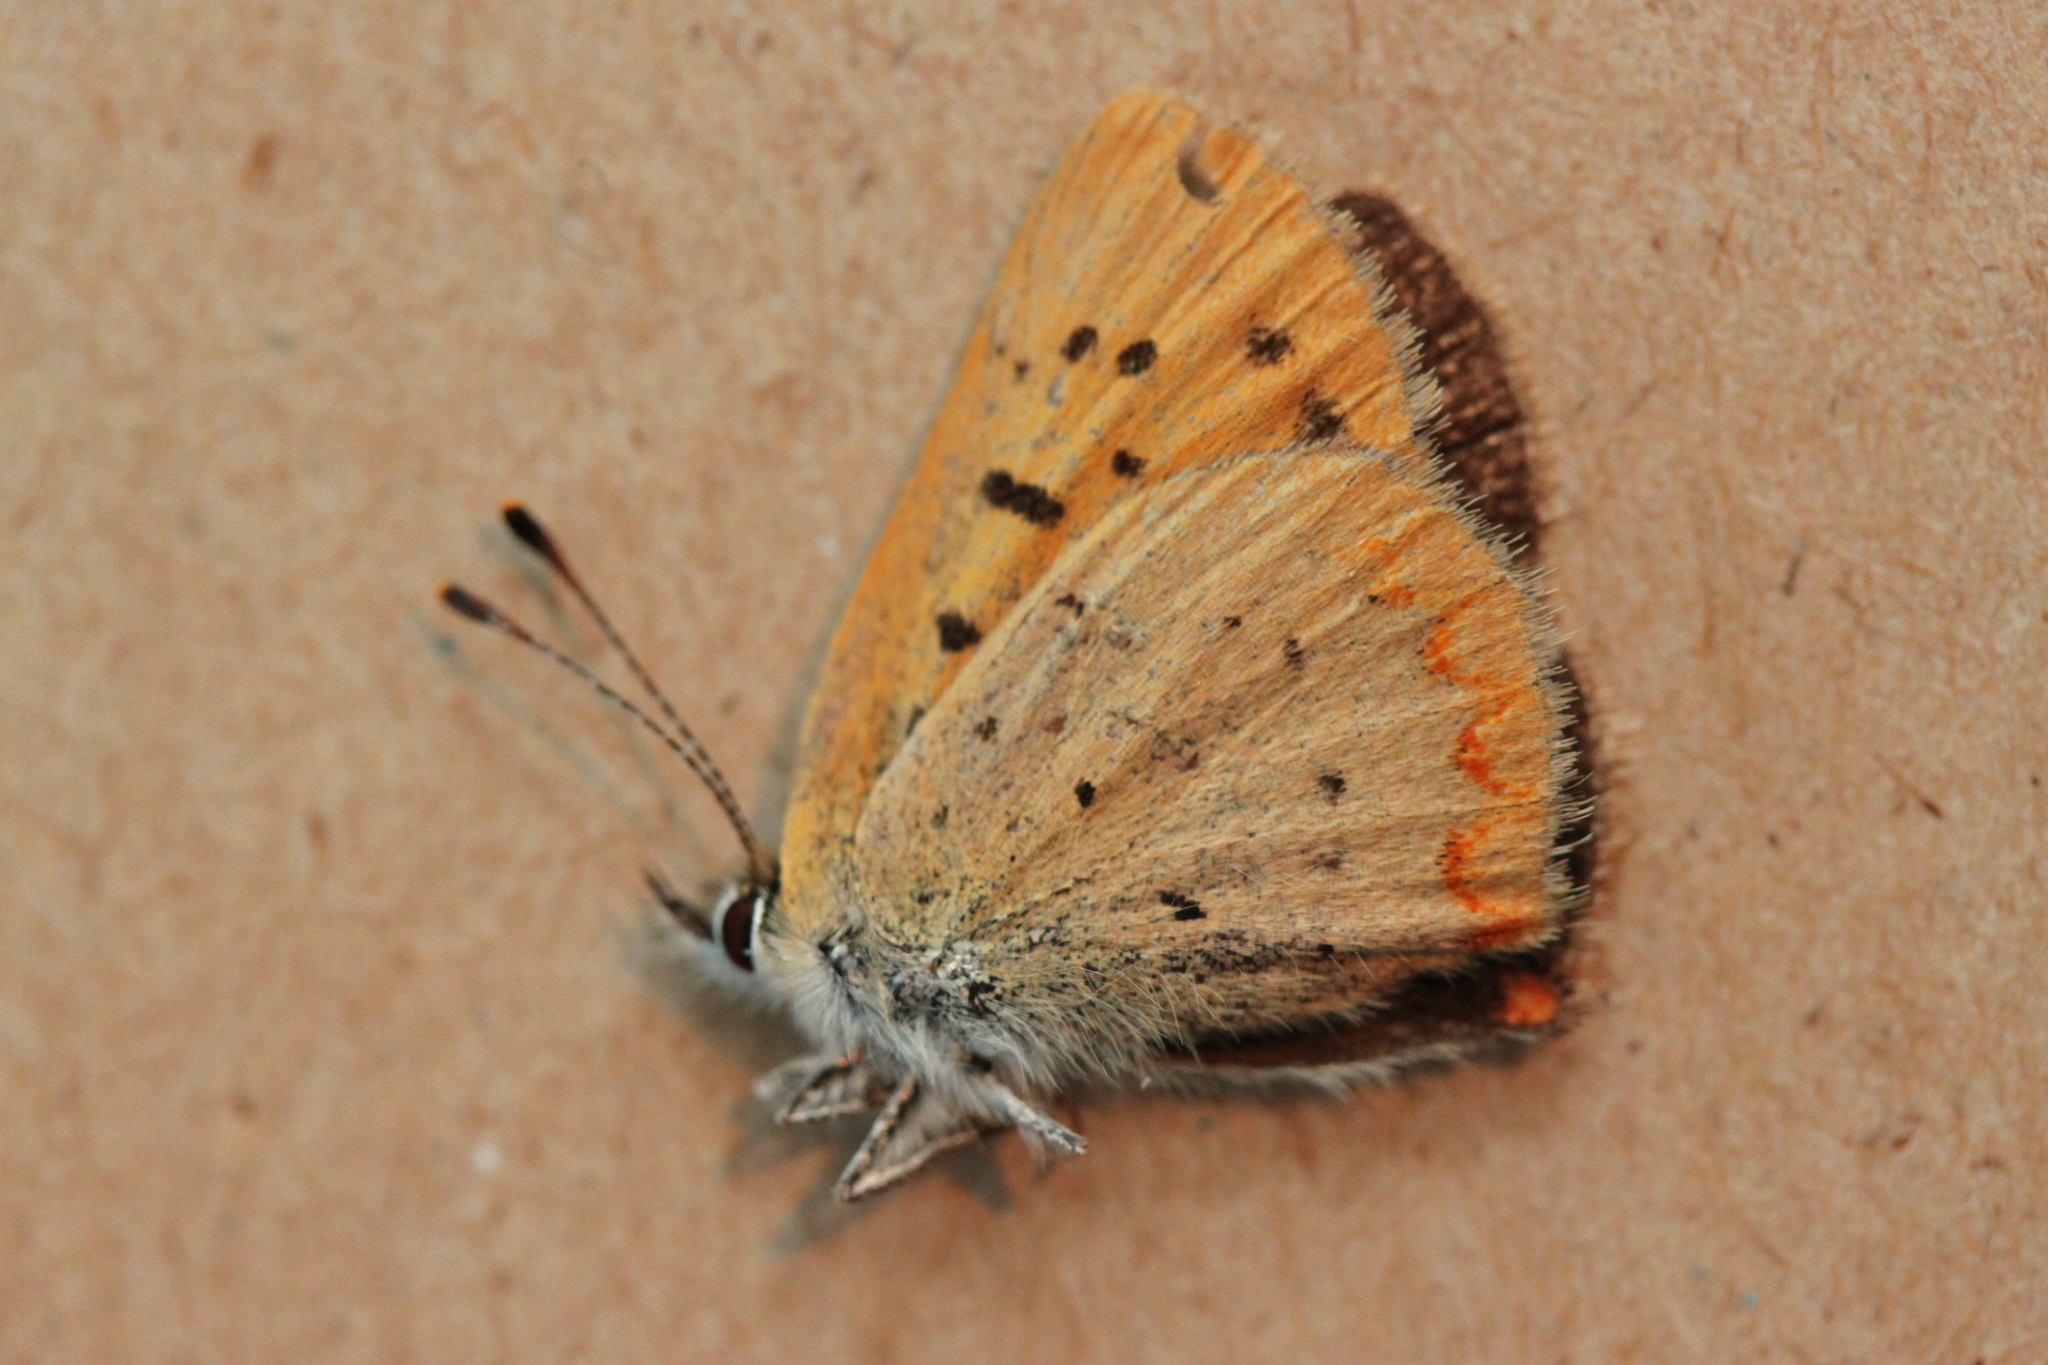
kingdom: Animalia
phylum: Arthropoda
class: Insecta
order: Lepidoptera
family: Lycaenidae
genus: Tharsalea
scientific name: Tharsalea dorcas
